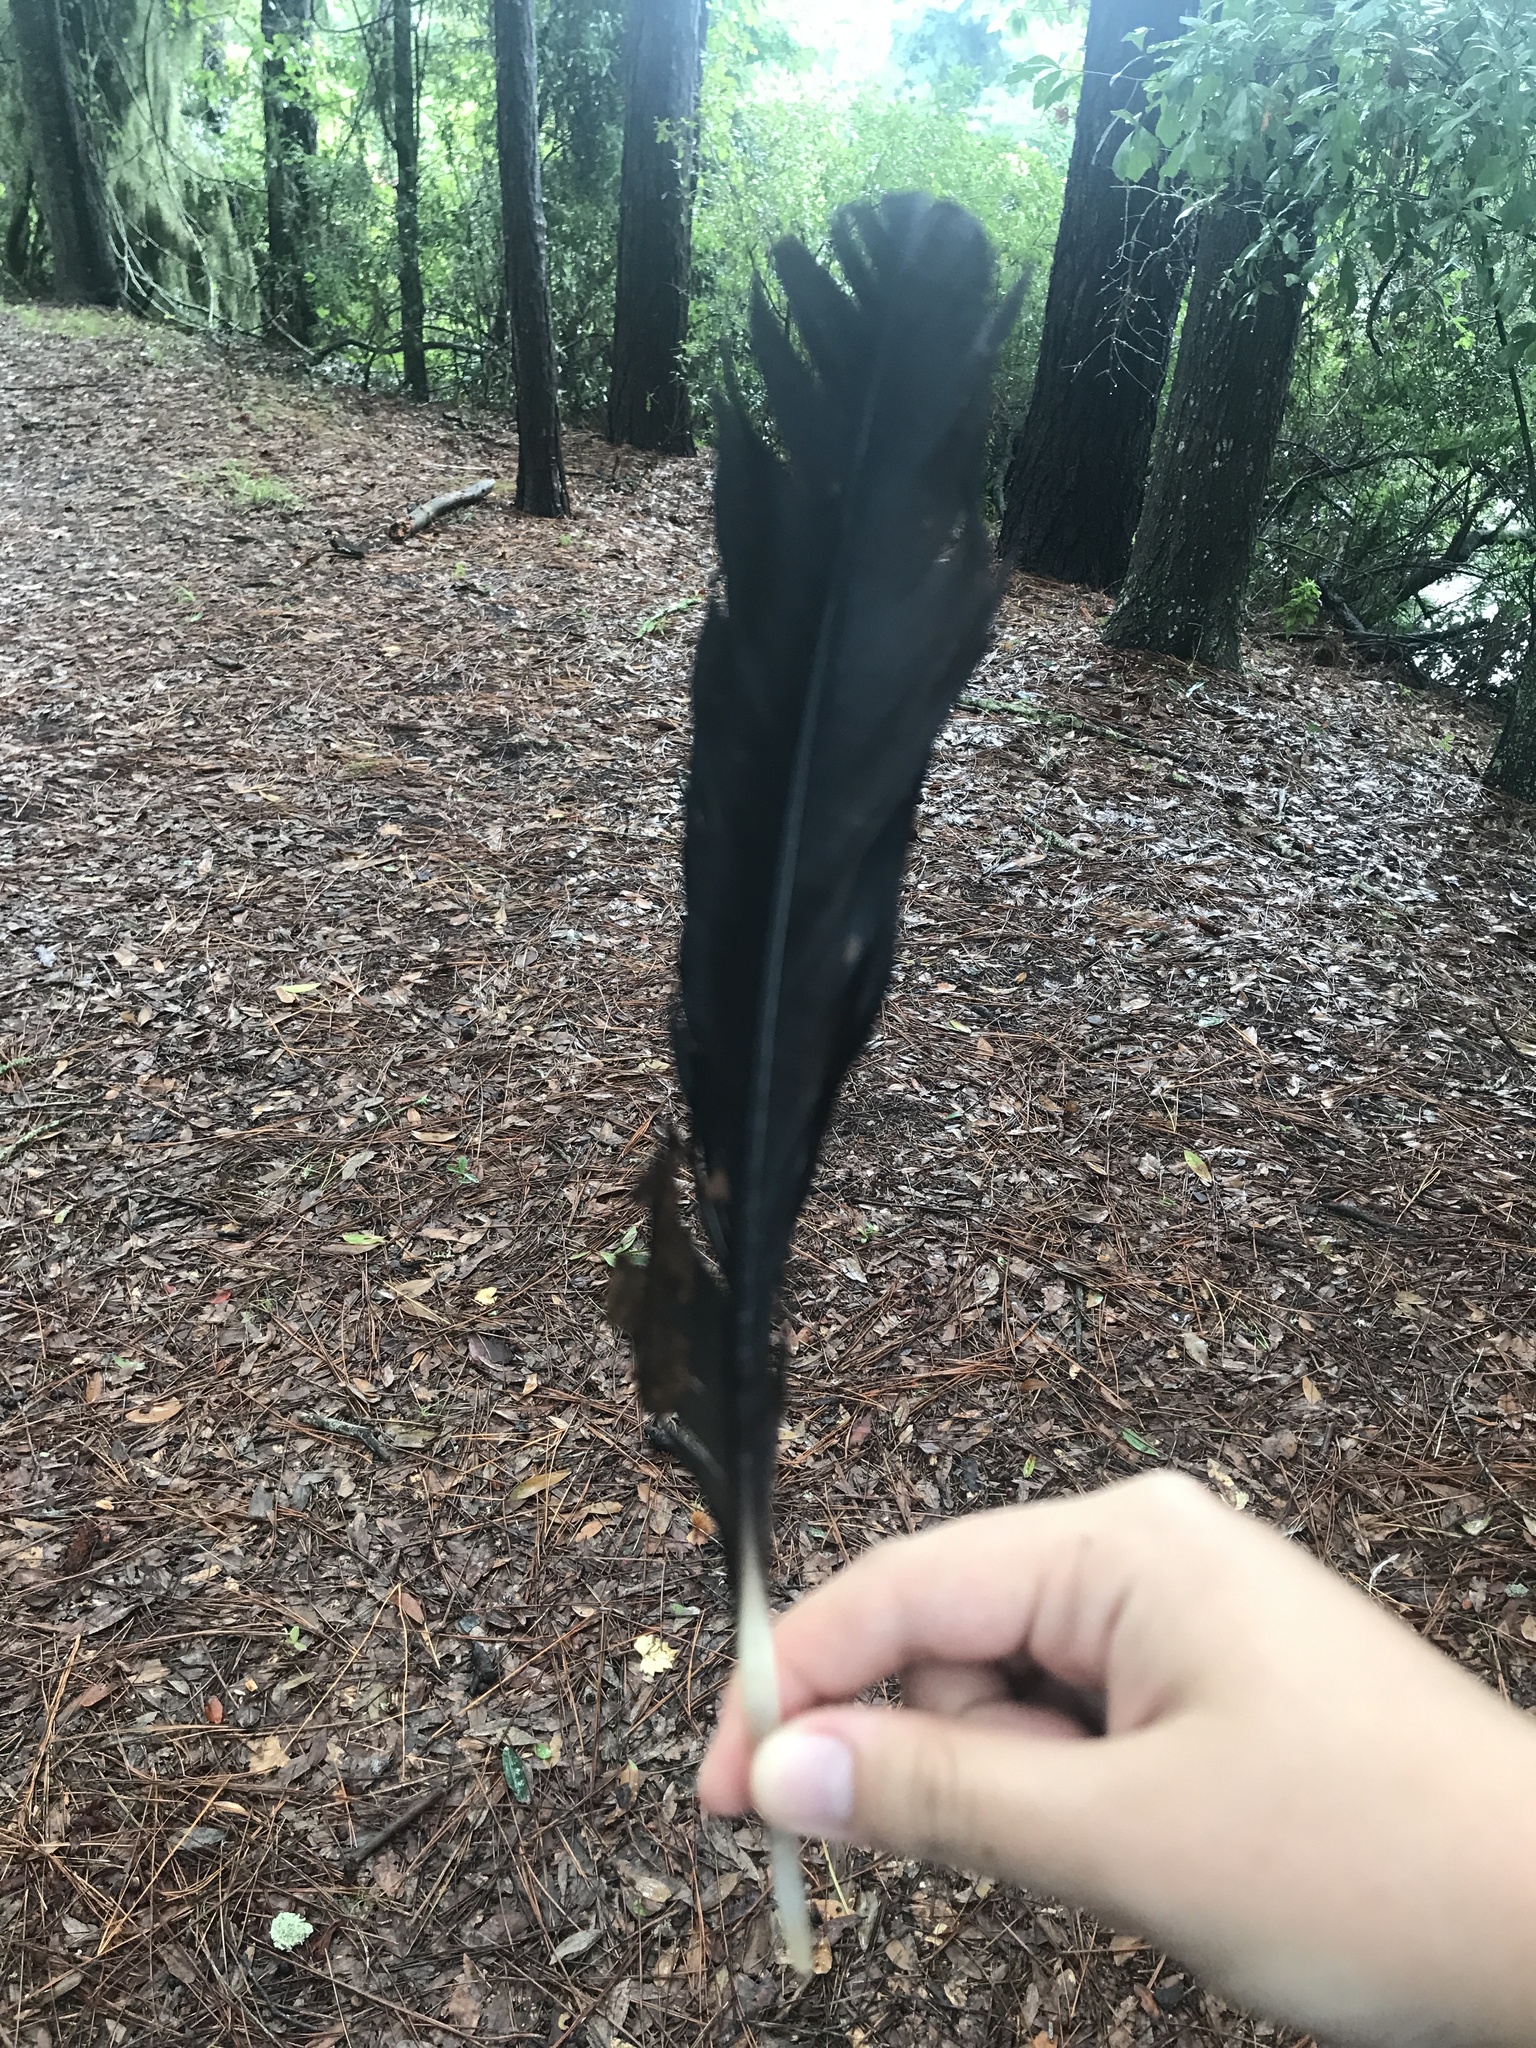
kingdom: Animalia
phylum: Chordata
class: Aves
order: Accipitriformes
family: Cathartidae
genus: Coragyps
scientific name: Coragyps atratus
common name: Black vulture
